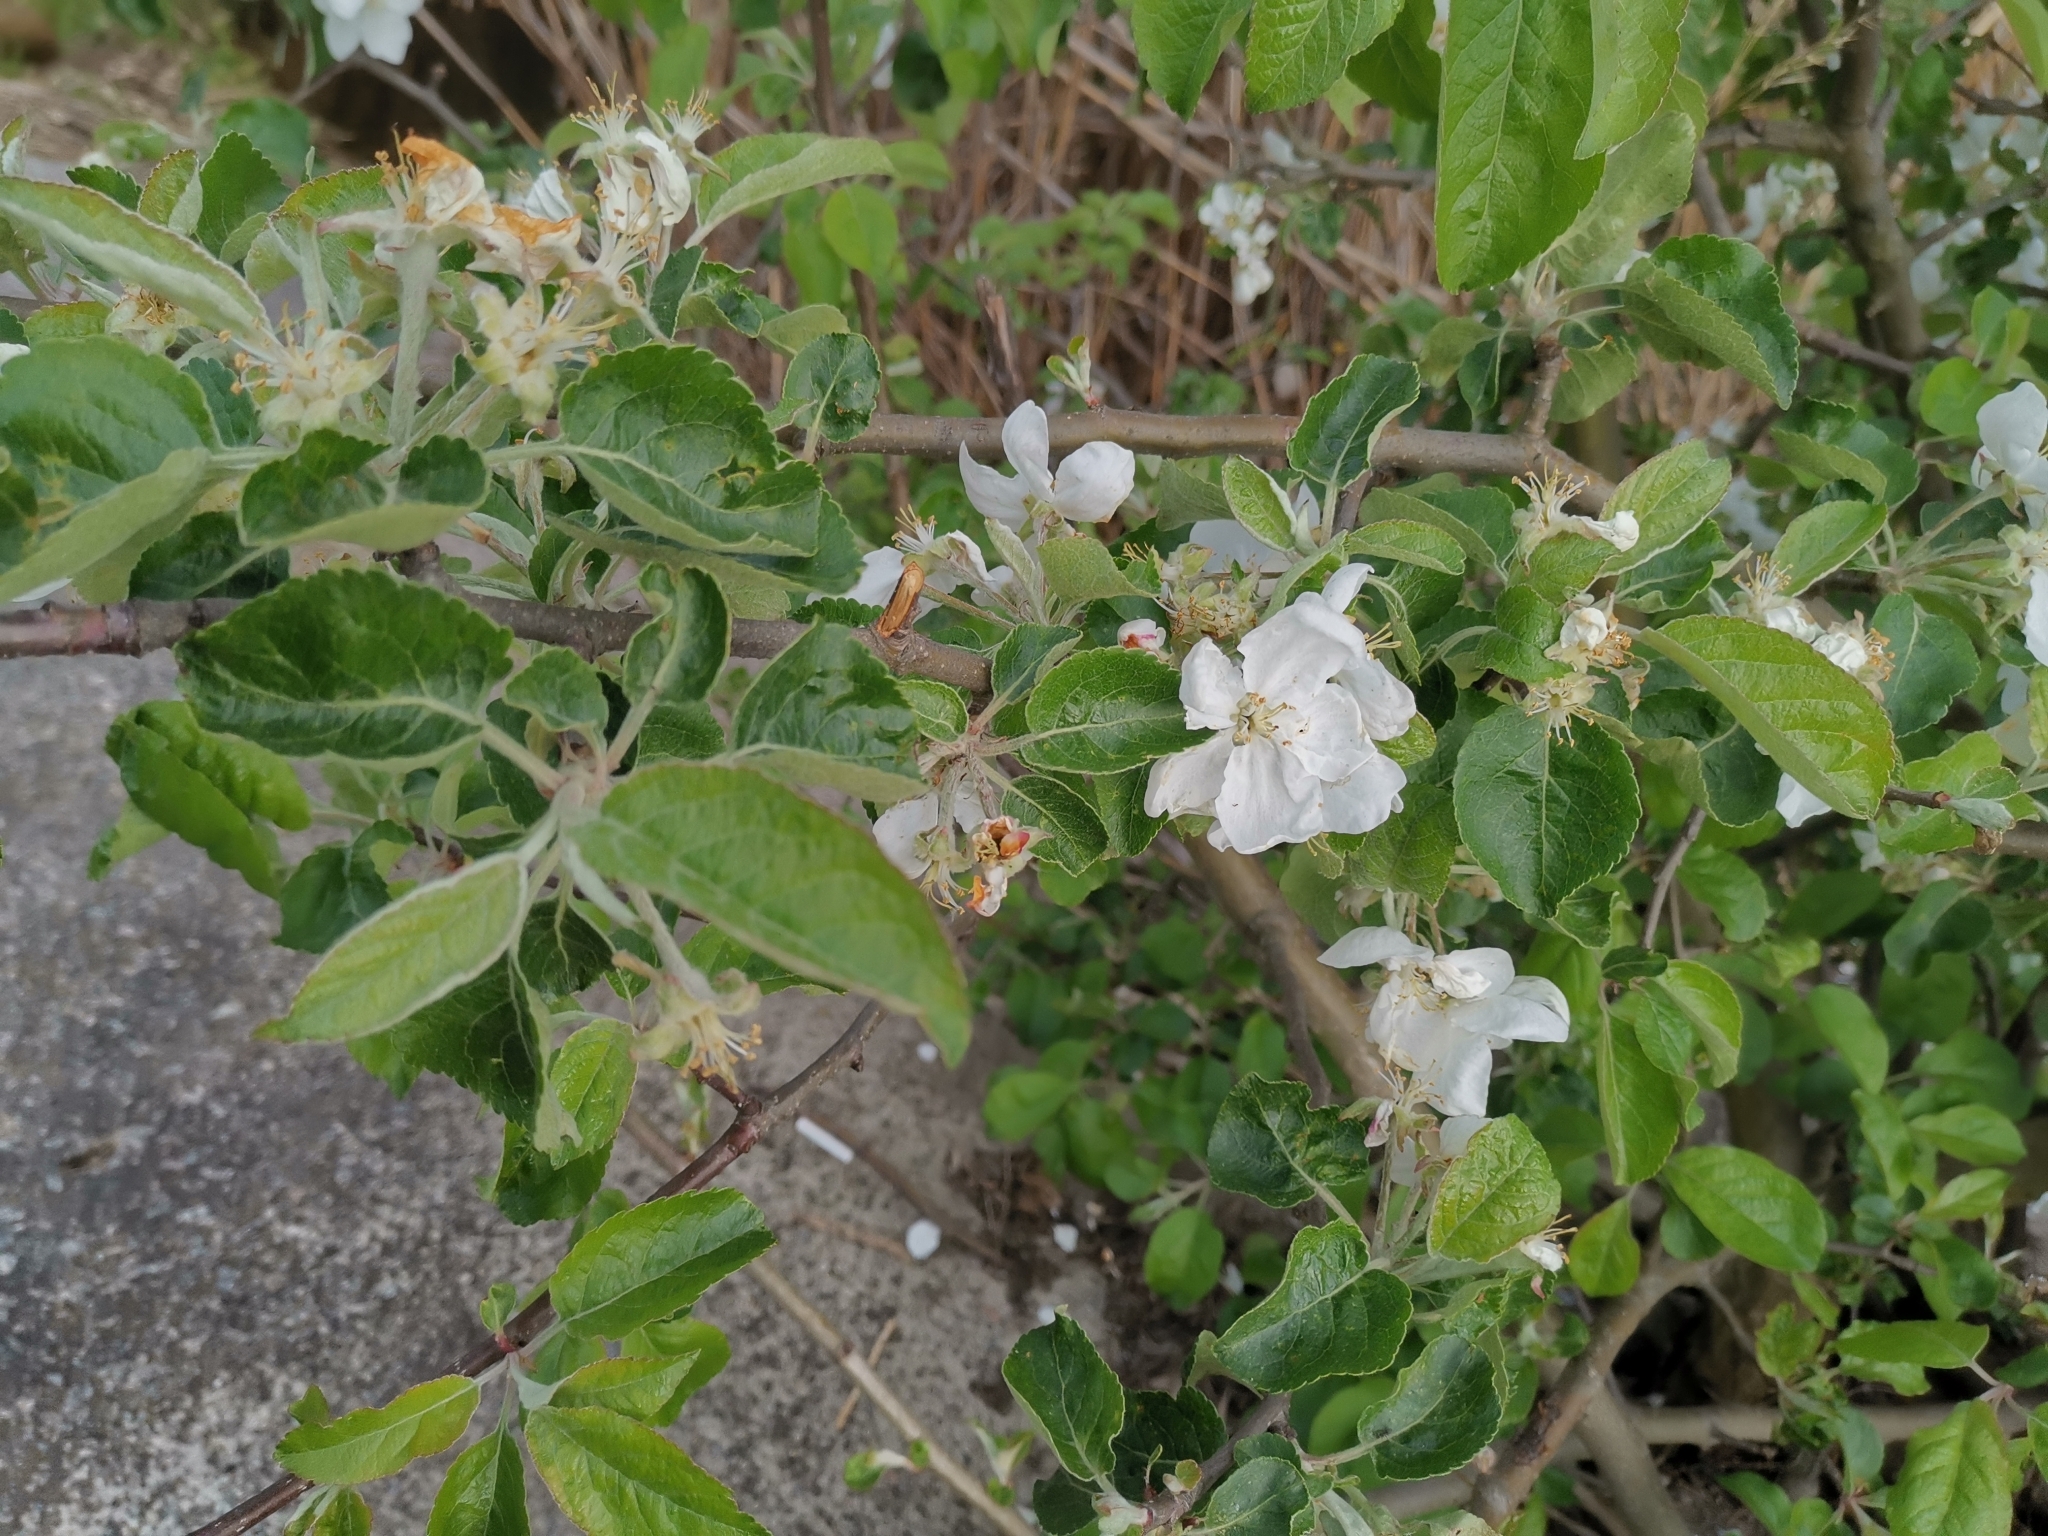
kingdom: Plantae
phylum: Tracheophyta
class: Magnoliopsida
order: Rosales
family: Rosaceae
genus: Malus
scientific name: Malus domestica
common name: Apple
